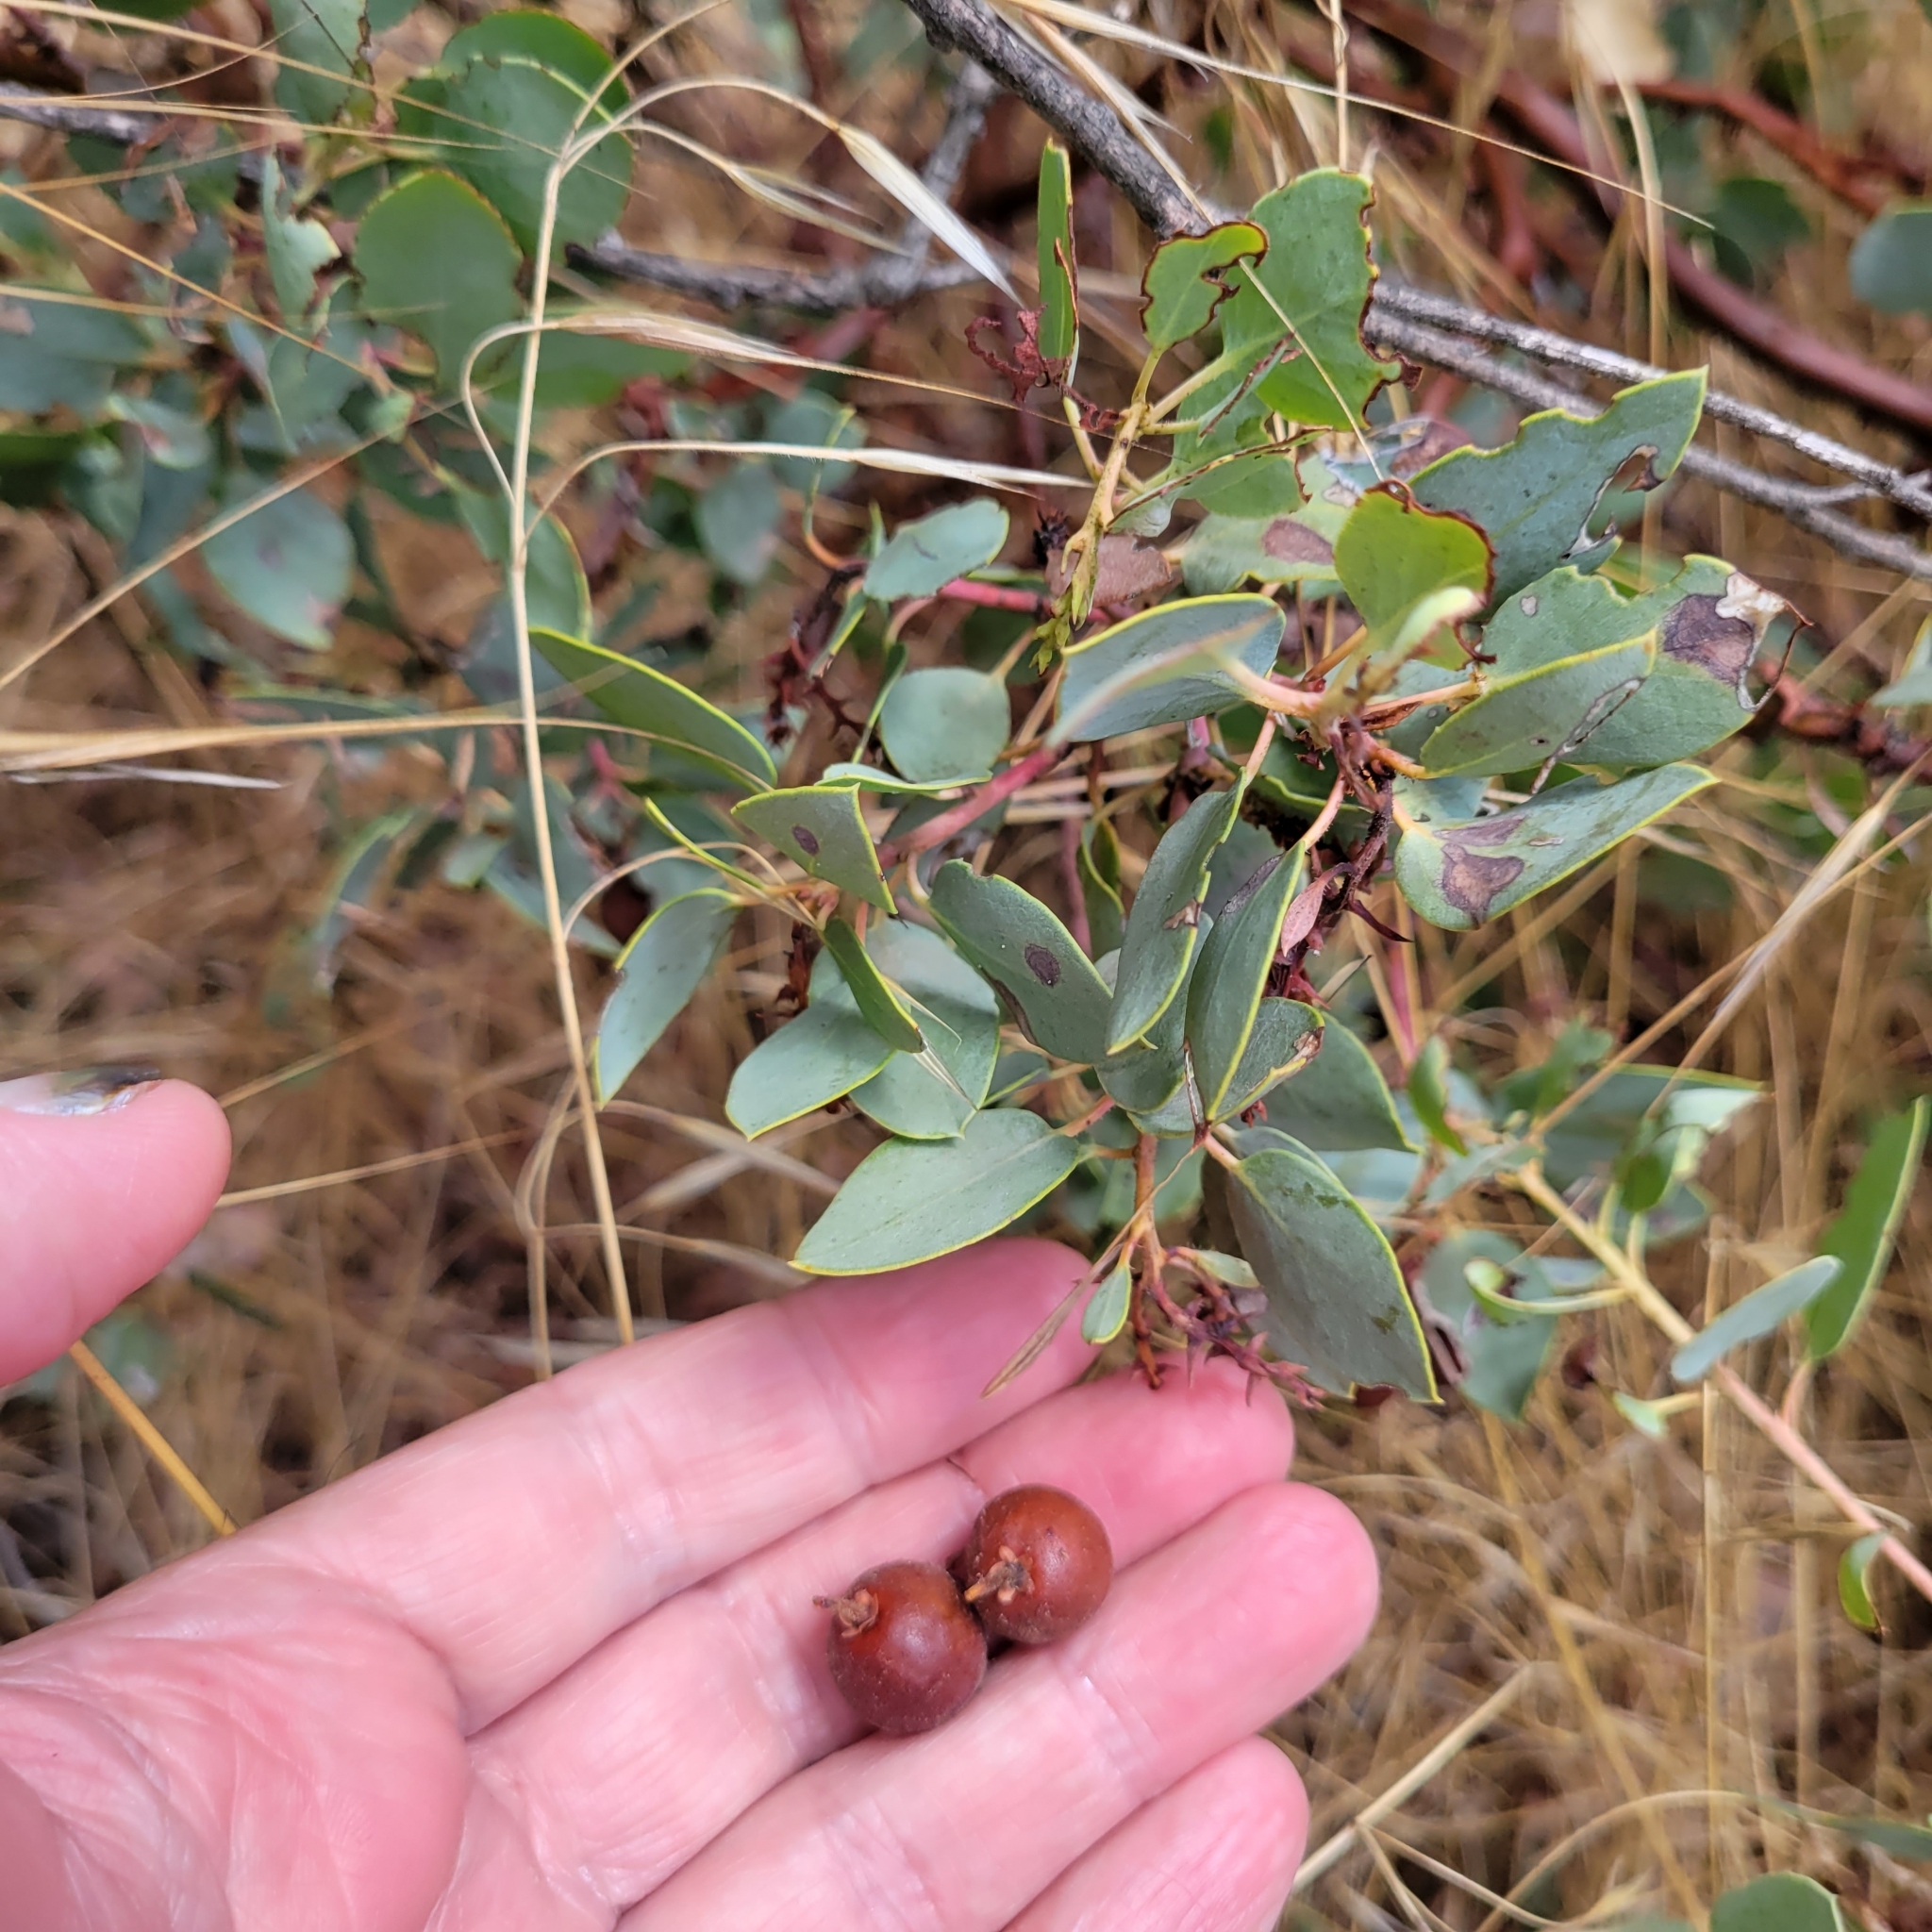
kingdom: Plantae
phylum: Tracheophyta
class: Magnoliopsida
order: Ericales
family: Ericaceae
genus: Arctostaphylos
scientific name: Arctostaphylos glauca
